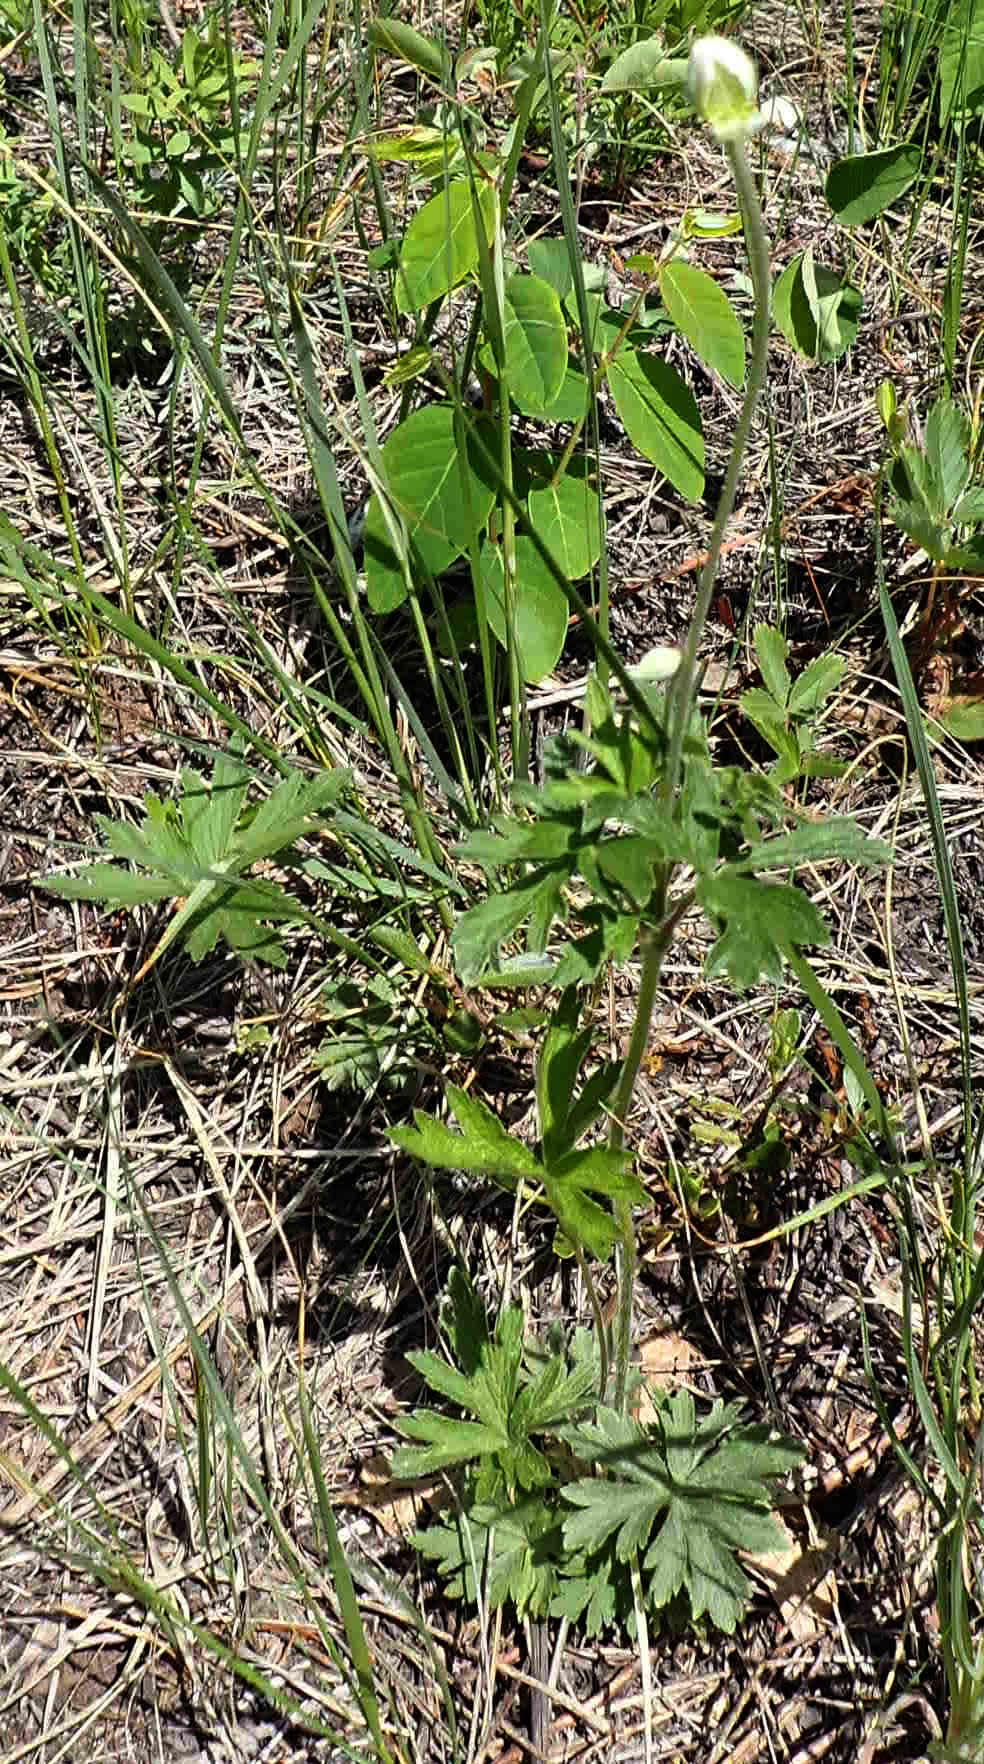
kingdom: Plantae
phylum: Tracheophyta
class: Magnoliopsida
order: Ranunculales
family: Ranunculaceae
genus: Anemone
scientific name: Anemone cylindrica
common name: Candle anemone
